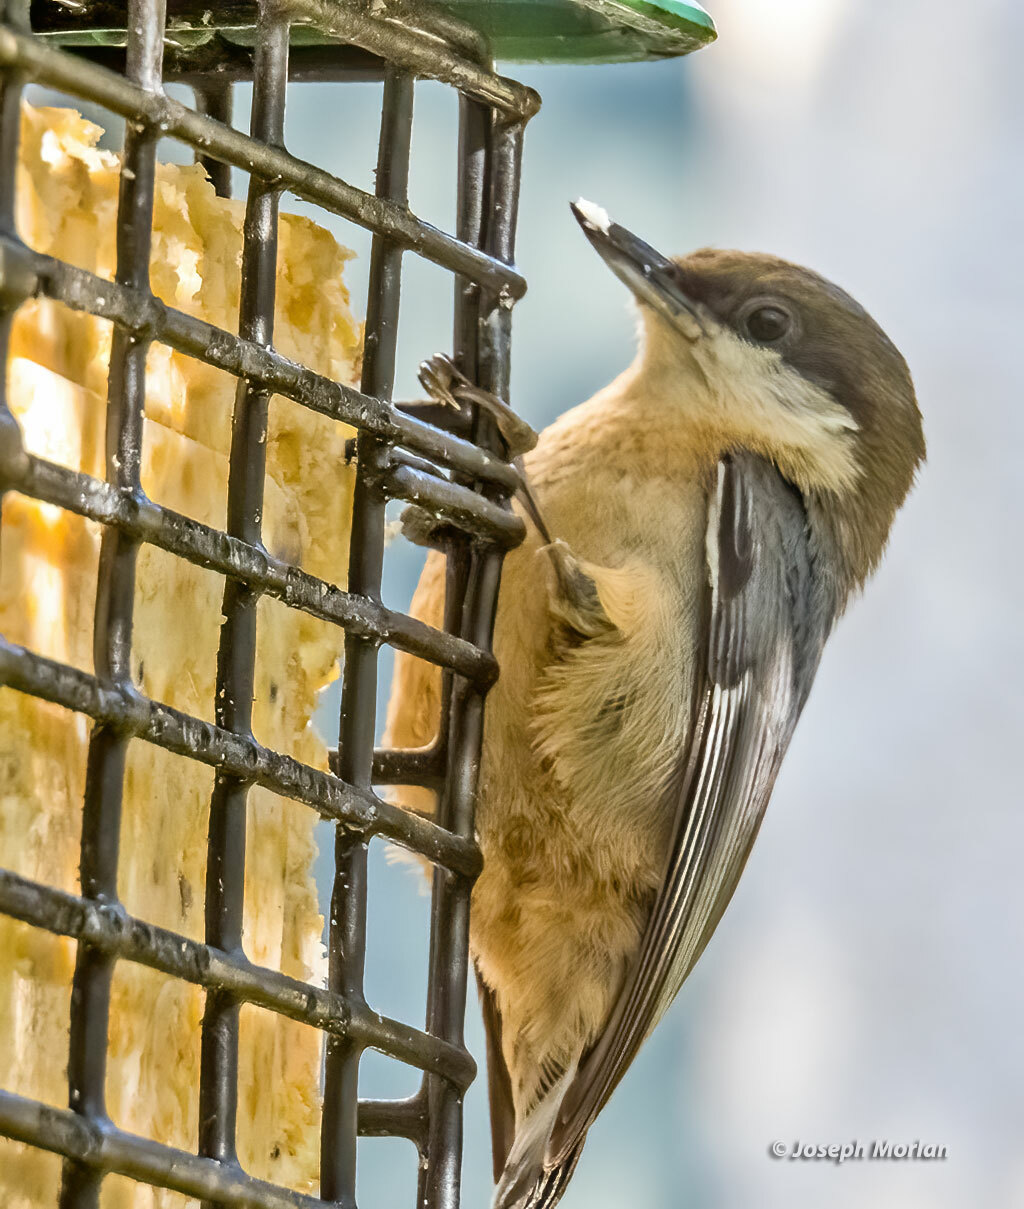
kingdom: Animalia
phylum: Chordata
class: Aves
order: Passeriformes
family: Sittidae
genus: Sitta
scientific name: Sitta pygmaea
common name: Pygmy nuthatch
